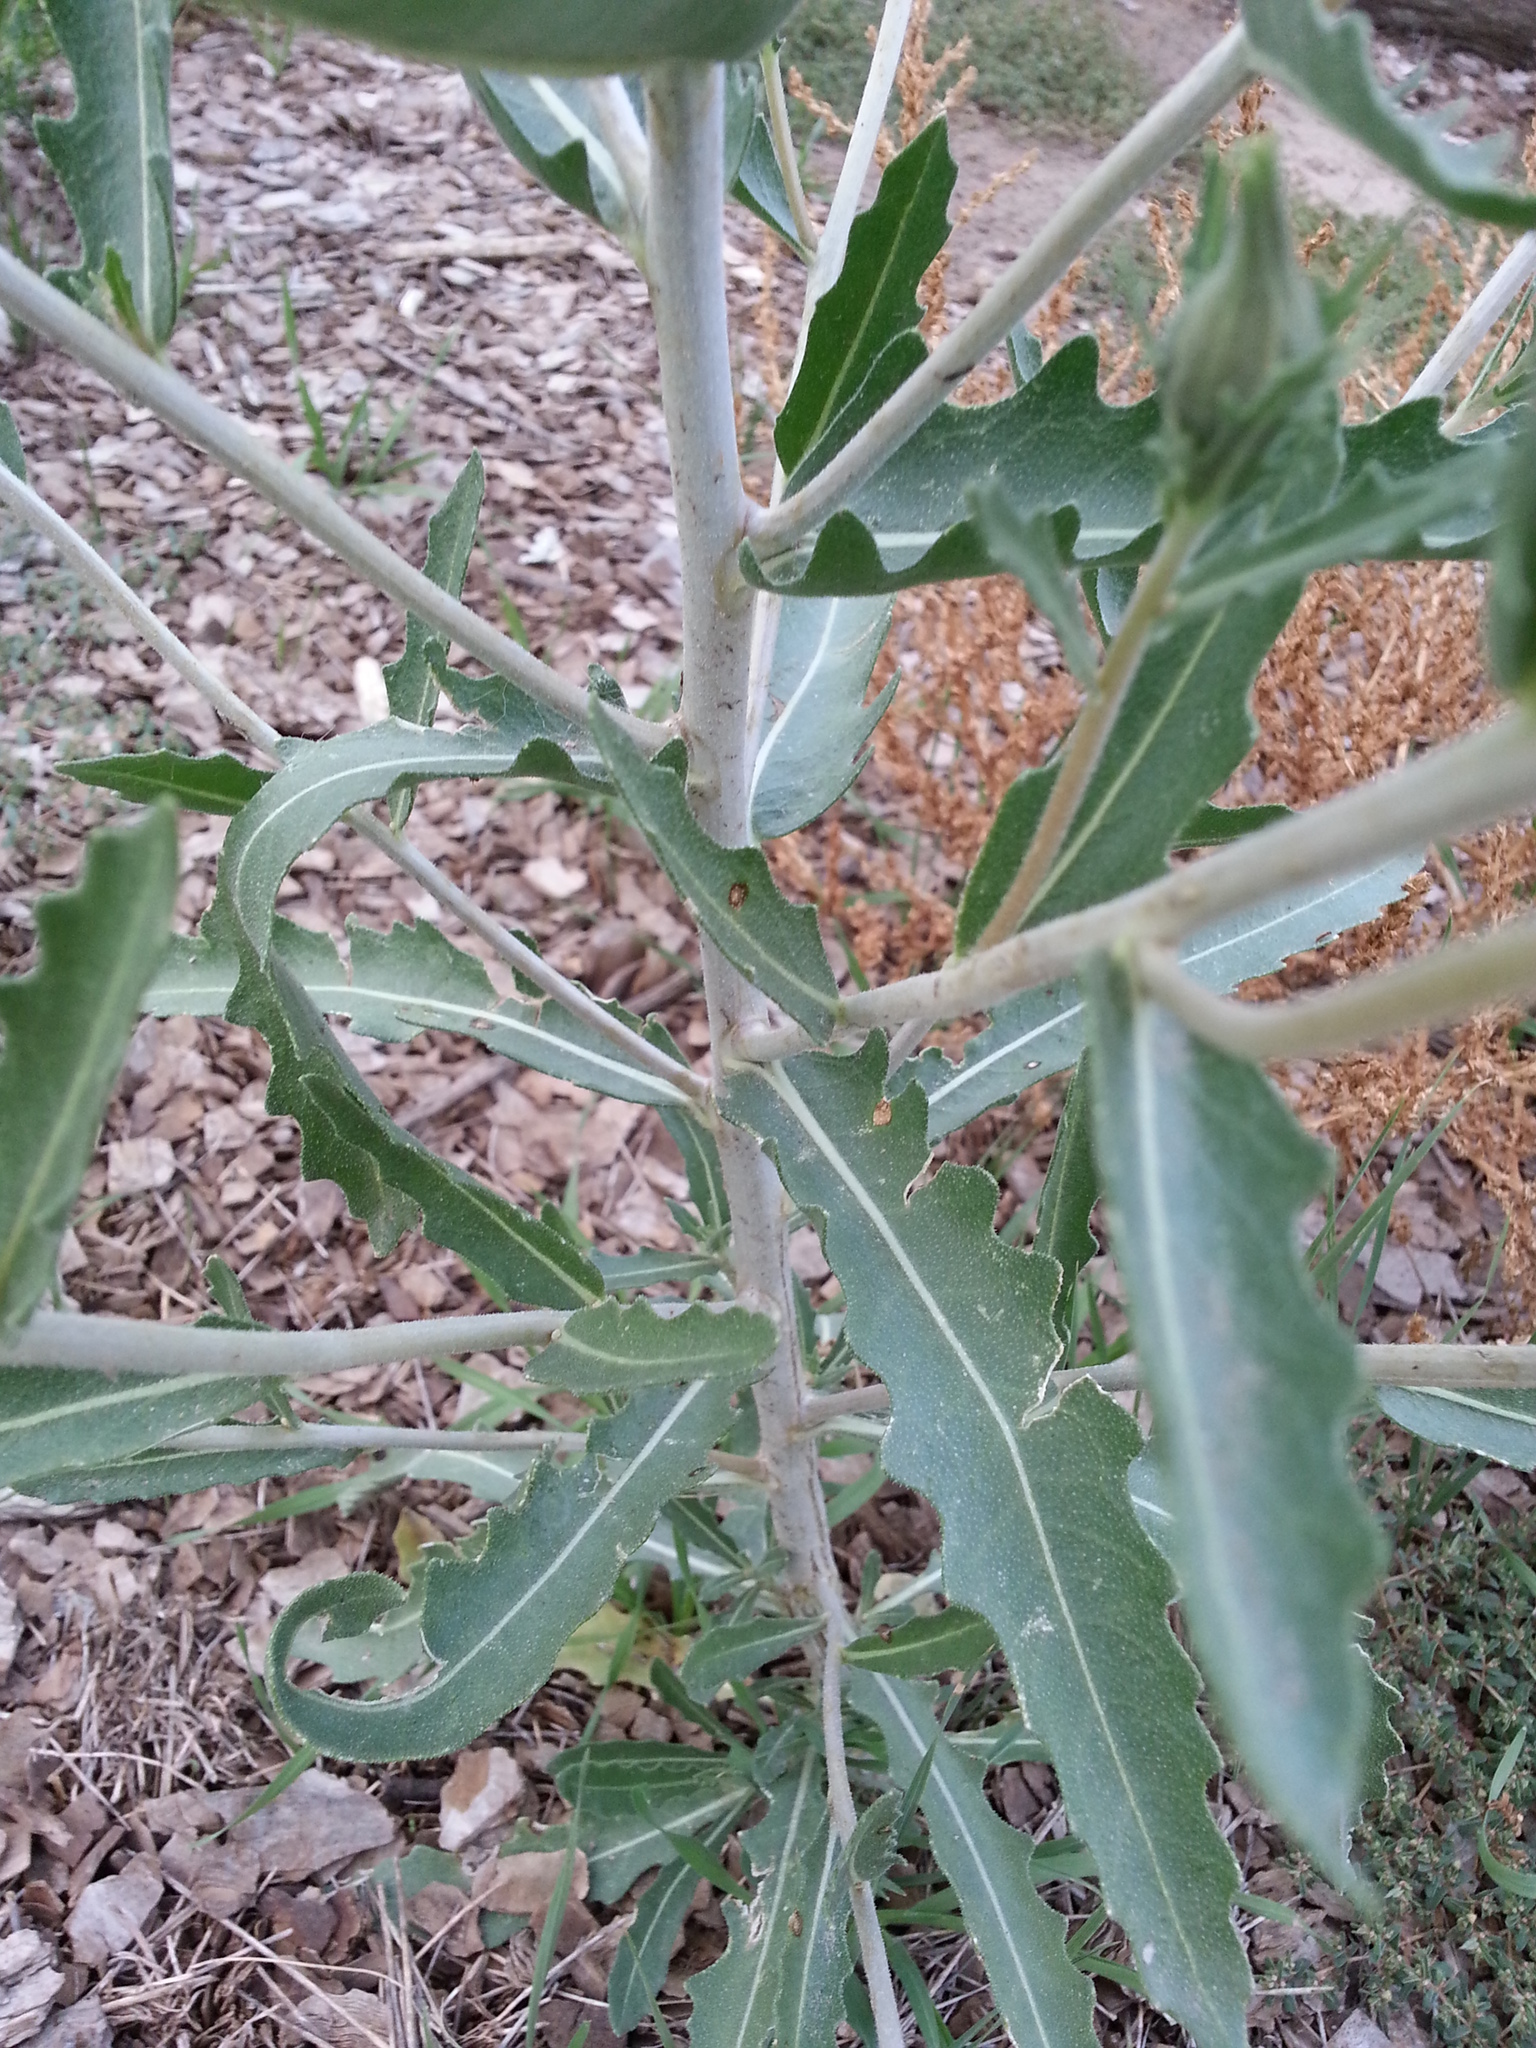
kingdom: Plantae
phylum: Tracheophyta
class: Magnoliopsida
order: Cornales
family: Loasaceae
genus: Mentzelia
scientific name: Mentzelia nuda
